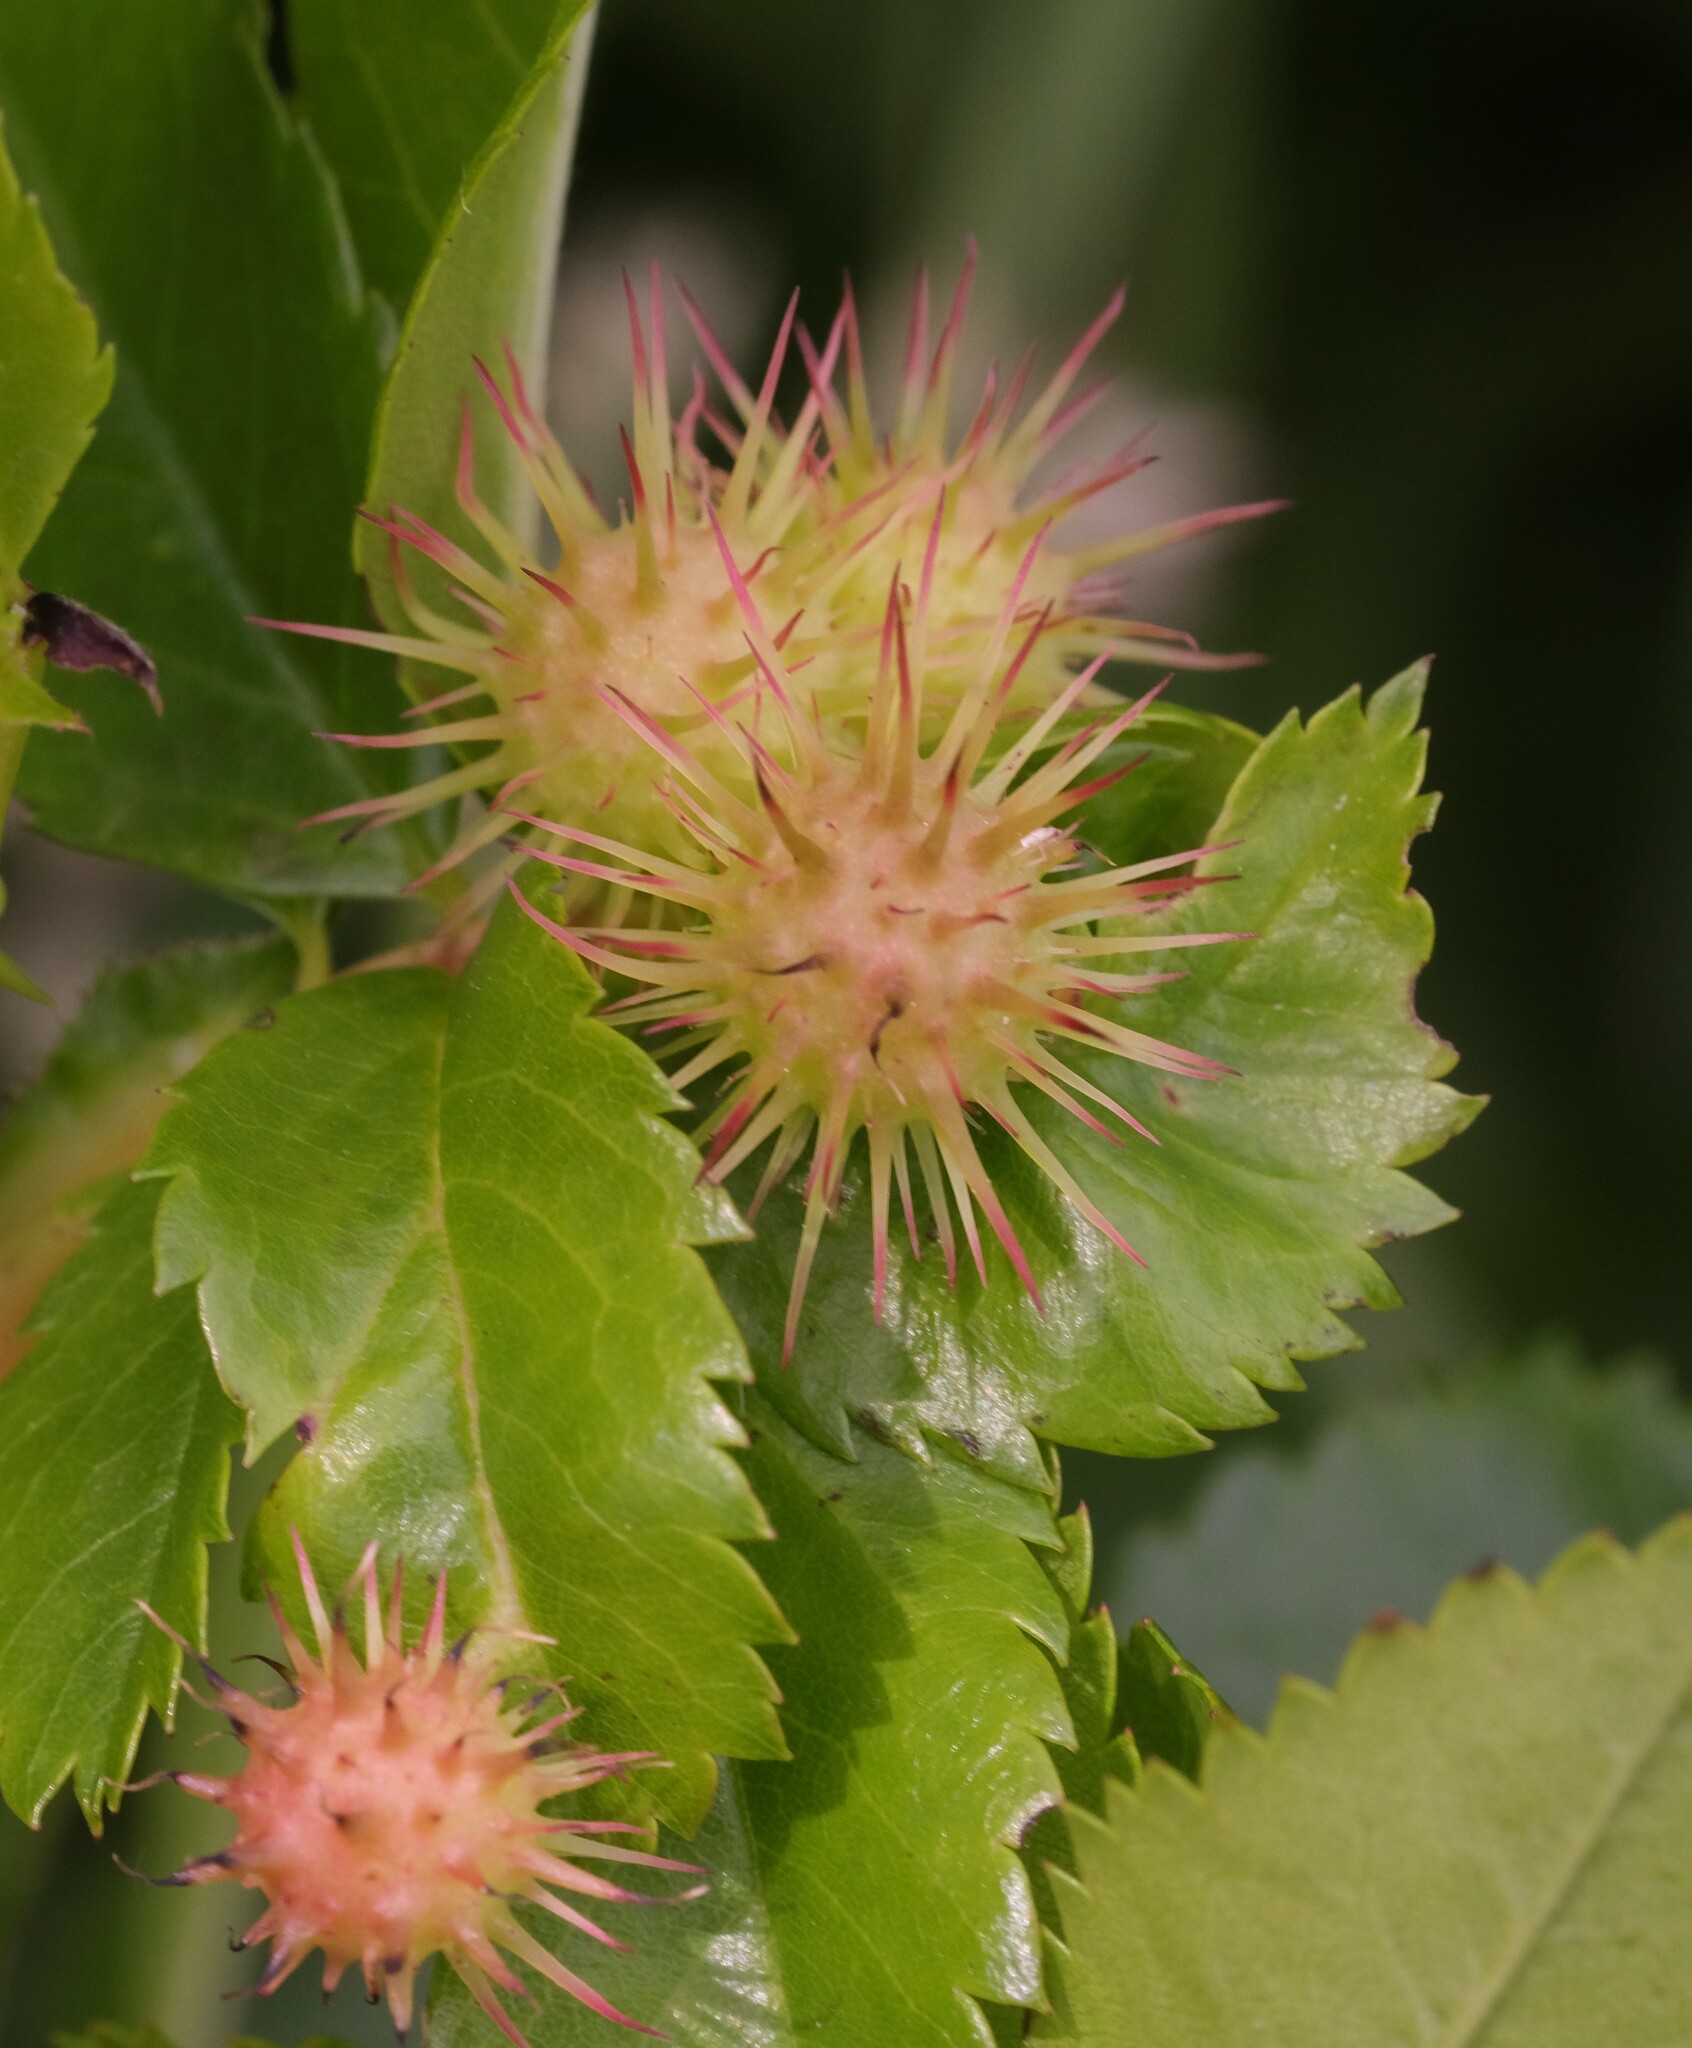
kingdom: Animalia
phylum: Arthropoda
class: Insecta
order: Hymenoptera
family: Cynipidae
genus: Diplolepis
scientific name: Diplolepis bicolor
